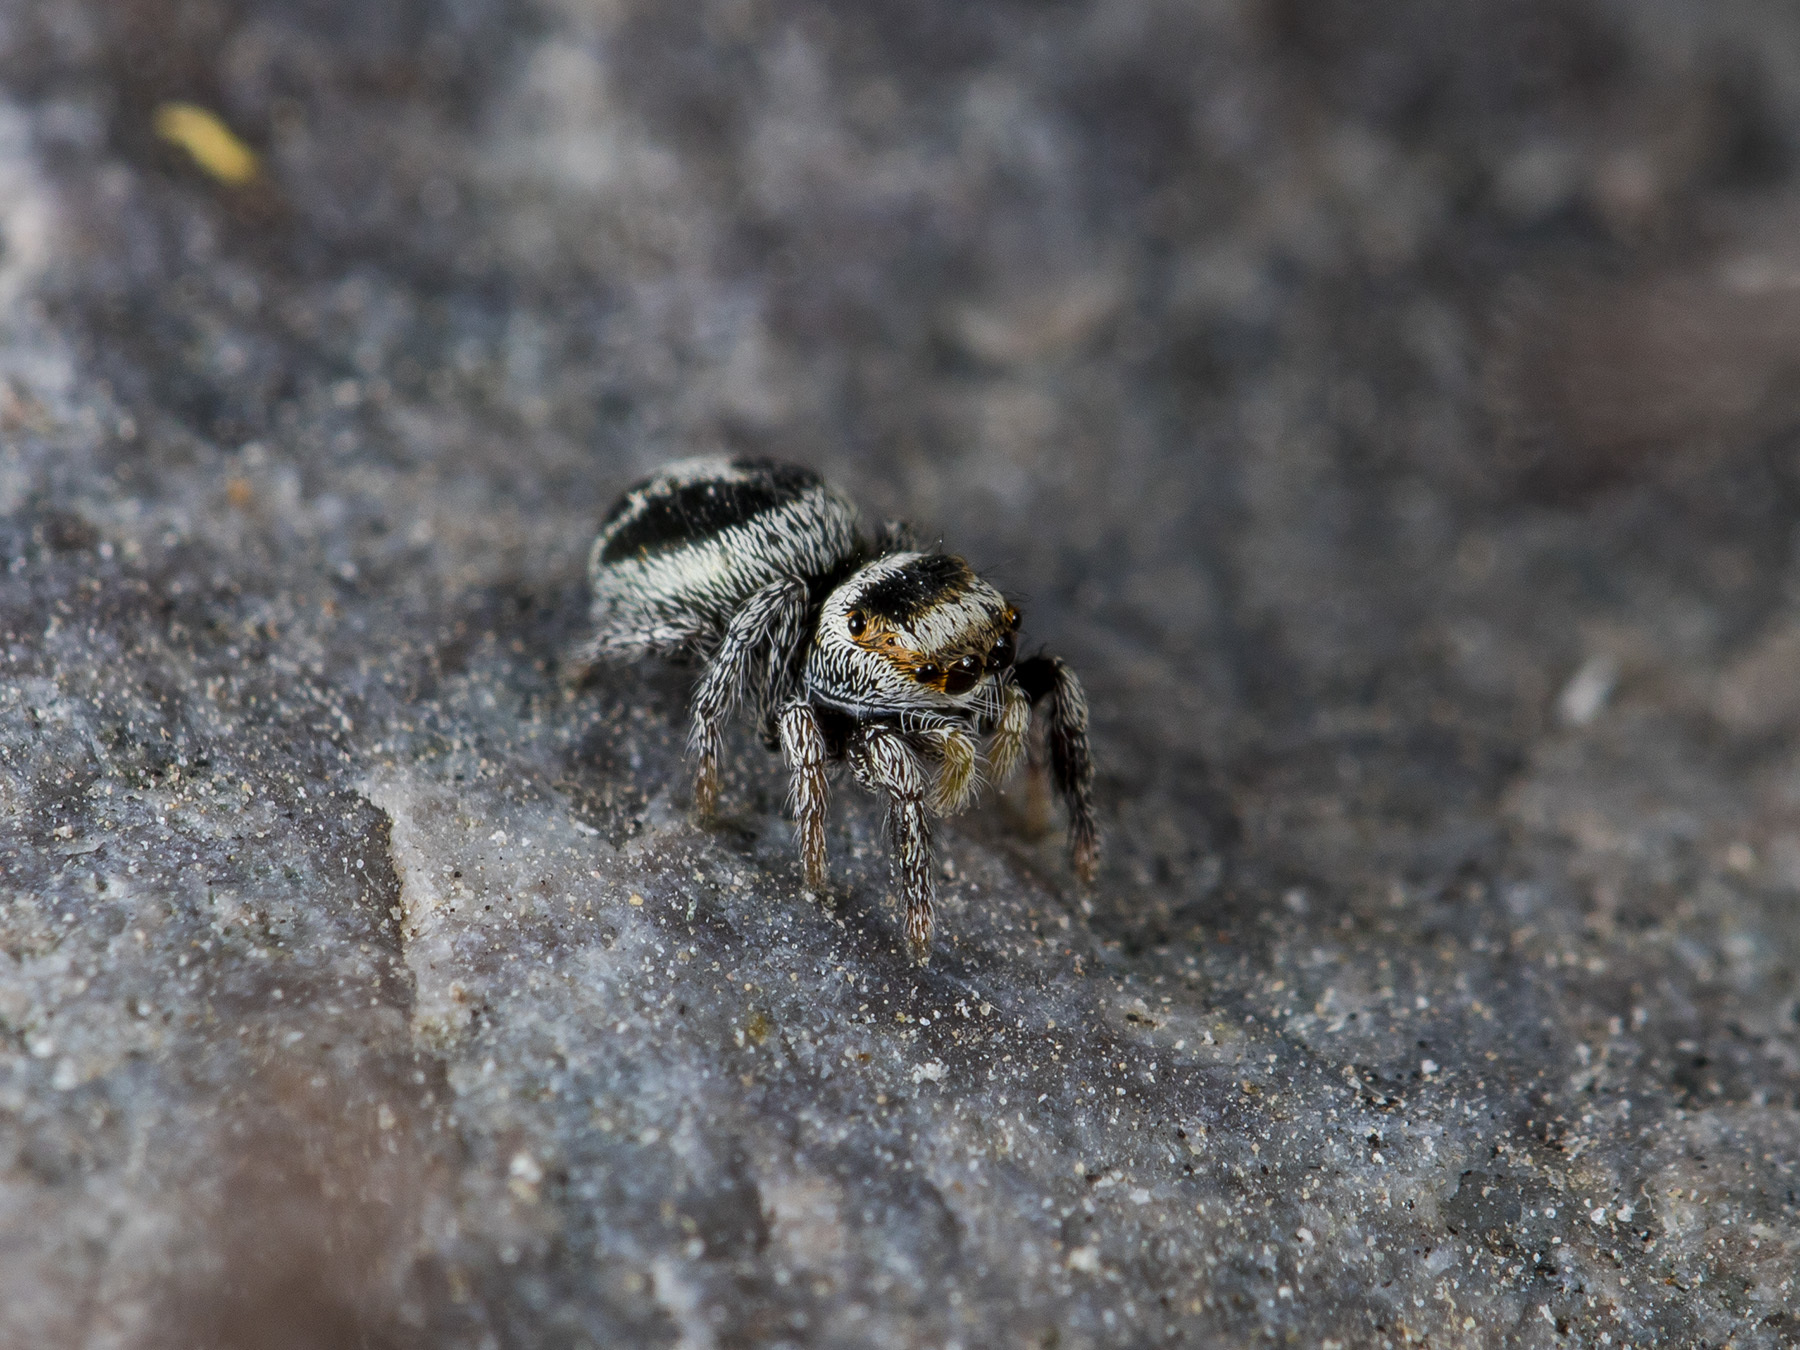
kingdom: Animalia
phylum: Arthropoda
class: Arachnida
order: Araneae
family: Salticidae
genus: Pellenes
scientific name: Pellenes geniculatus
